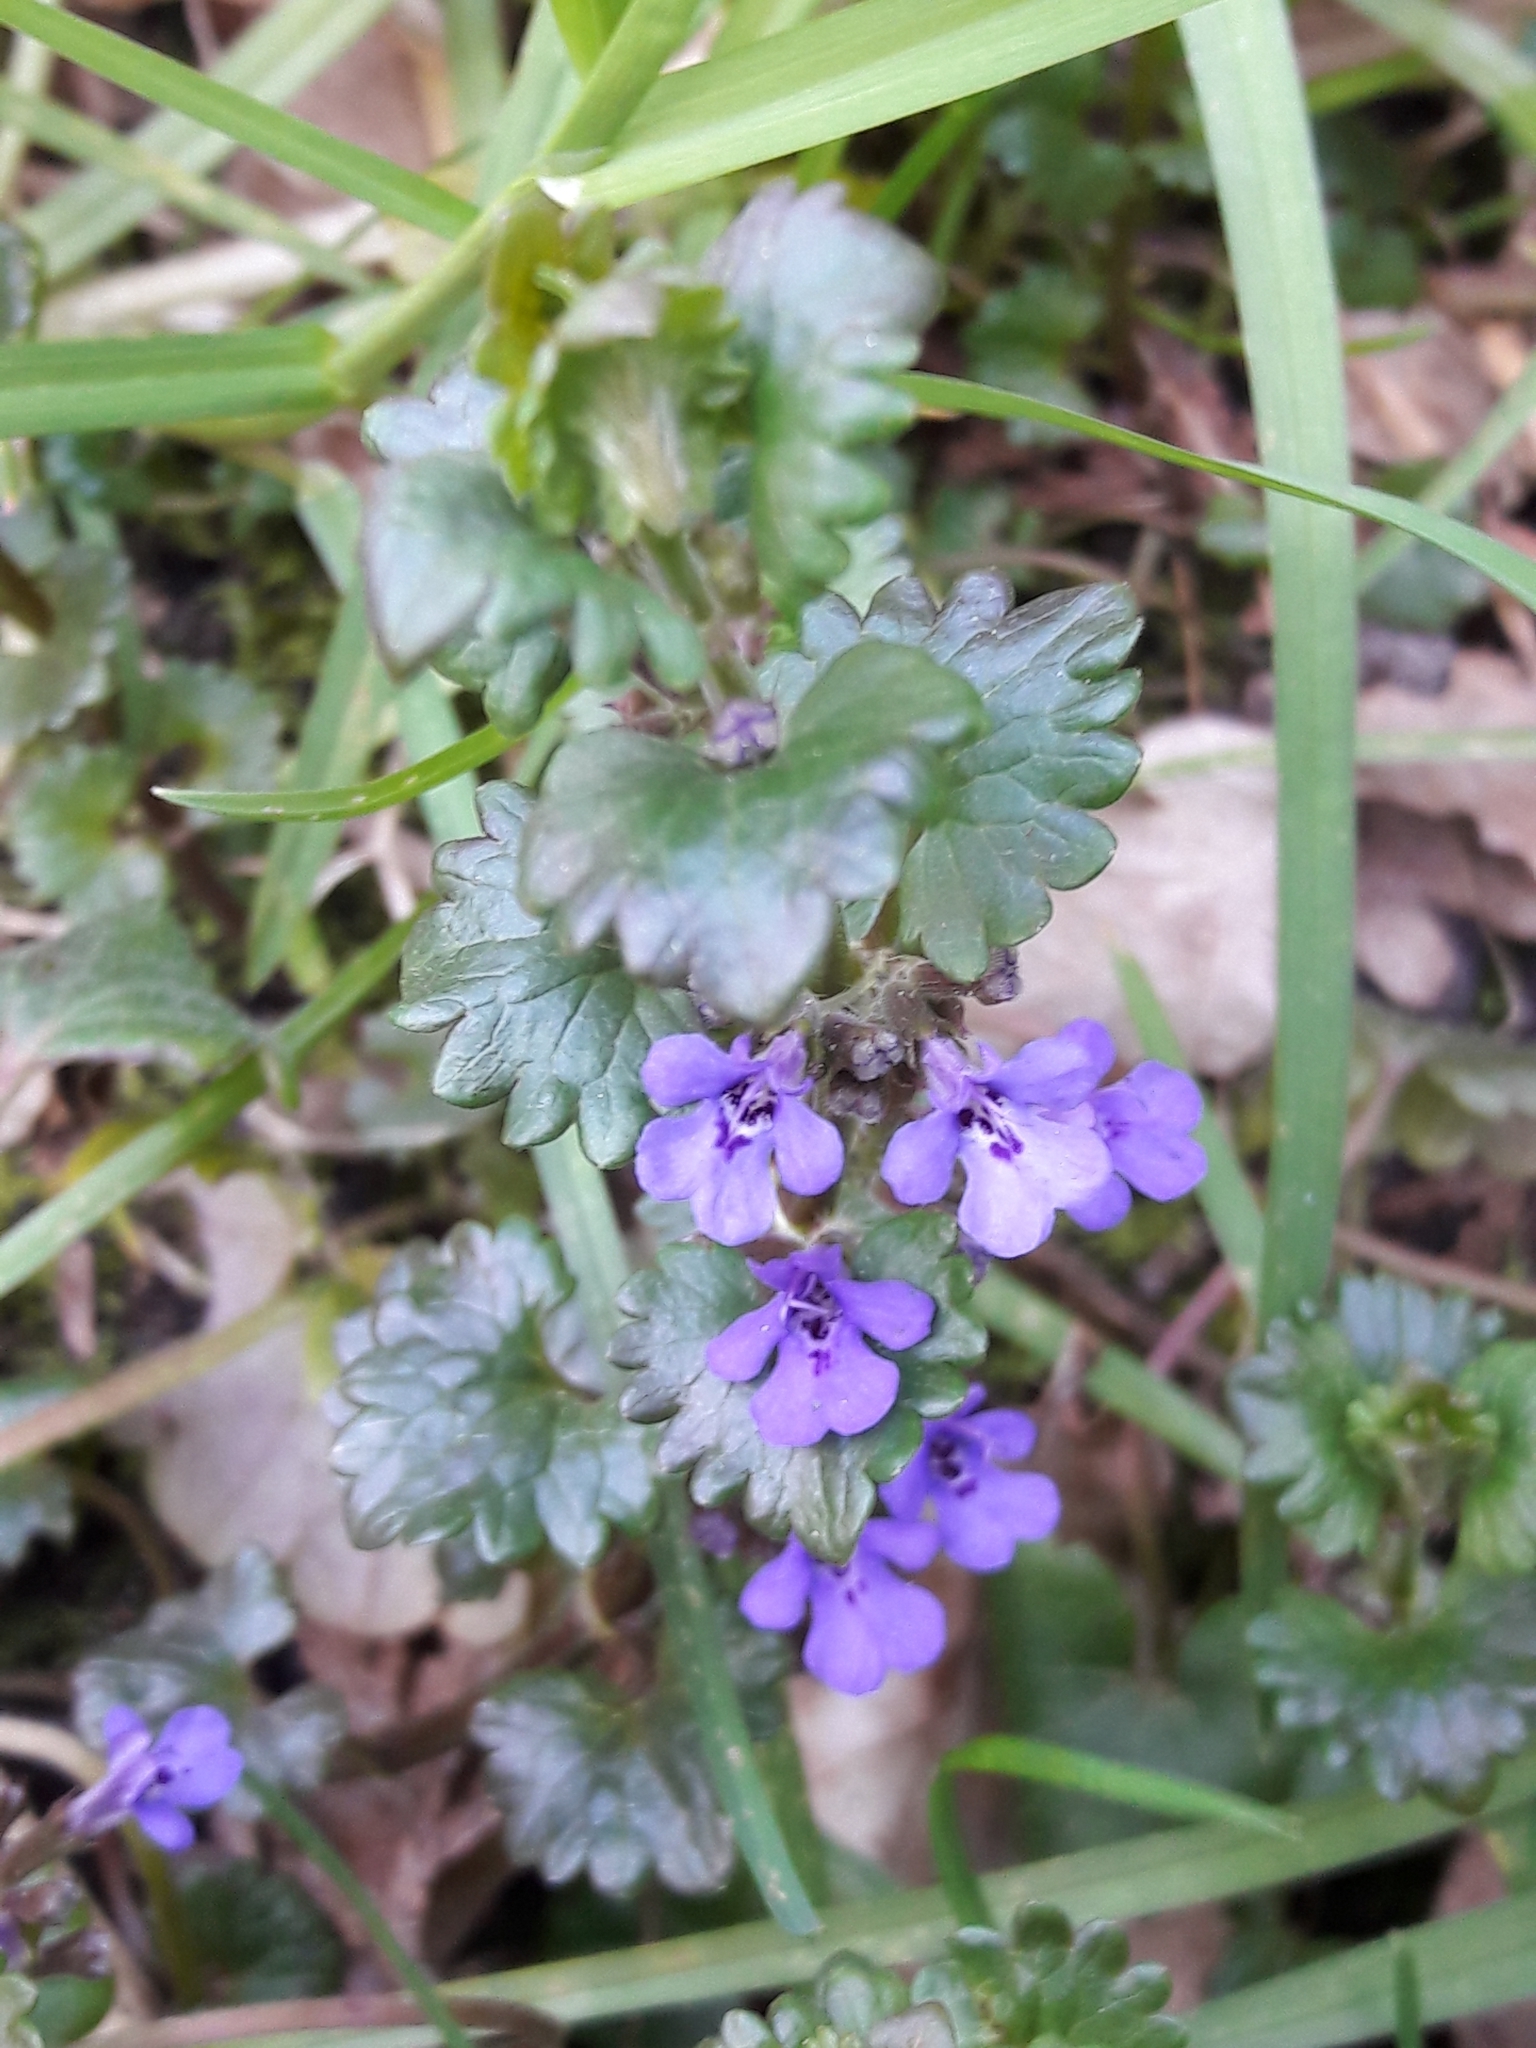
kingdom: Plantae
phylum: Tracheophyta
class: Magnoliopsida
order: Lamiales
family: Lamiaceae
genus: Glechoma
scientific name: Glechoma hederacea
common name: Ground ivy
